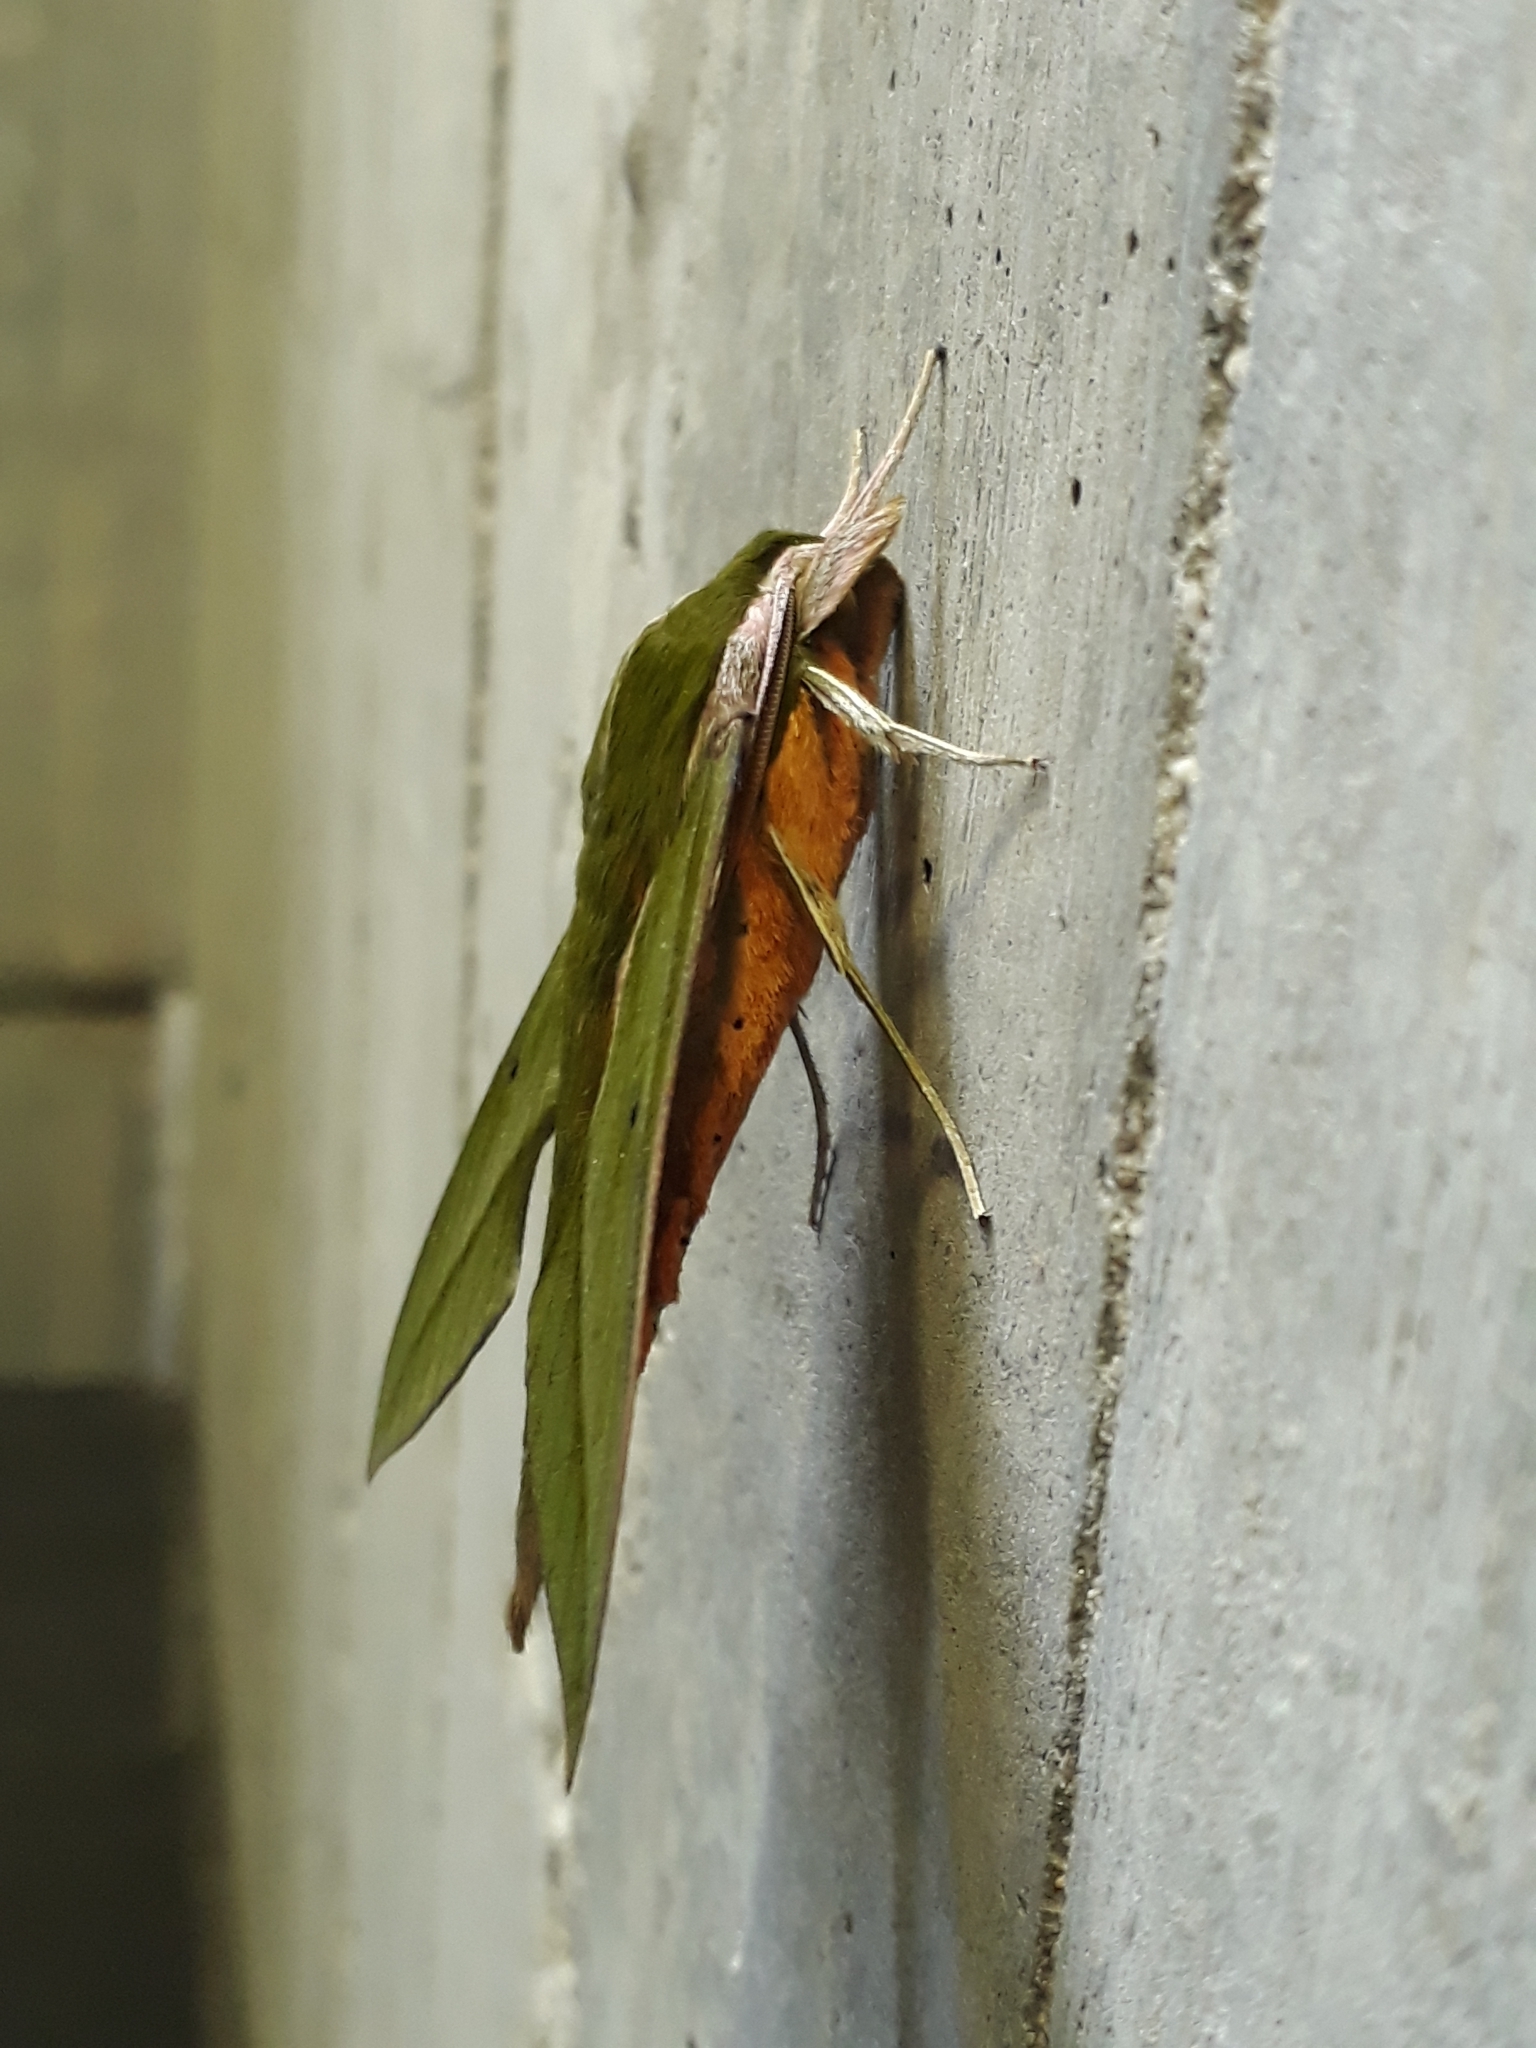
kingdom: Animalia
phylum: Arthropoda
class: Insecta
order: Lepidoptera
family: Sphingidae
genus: Xylophanes
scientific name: Xylophanes virescens
